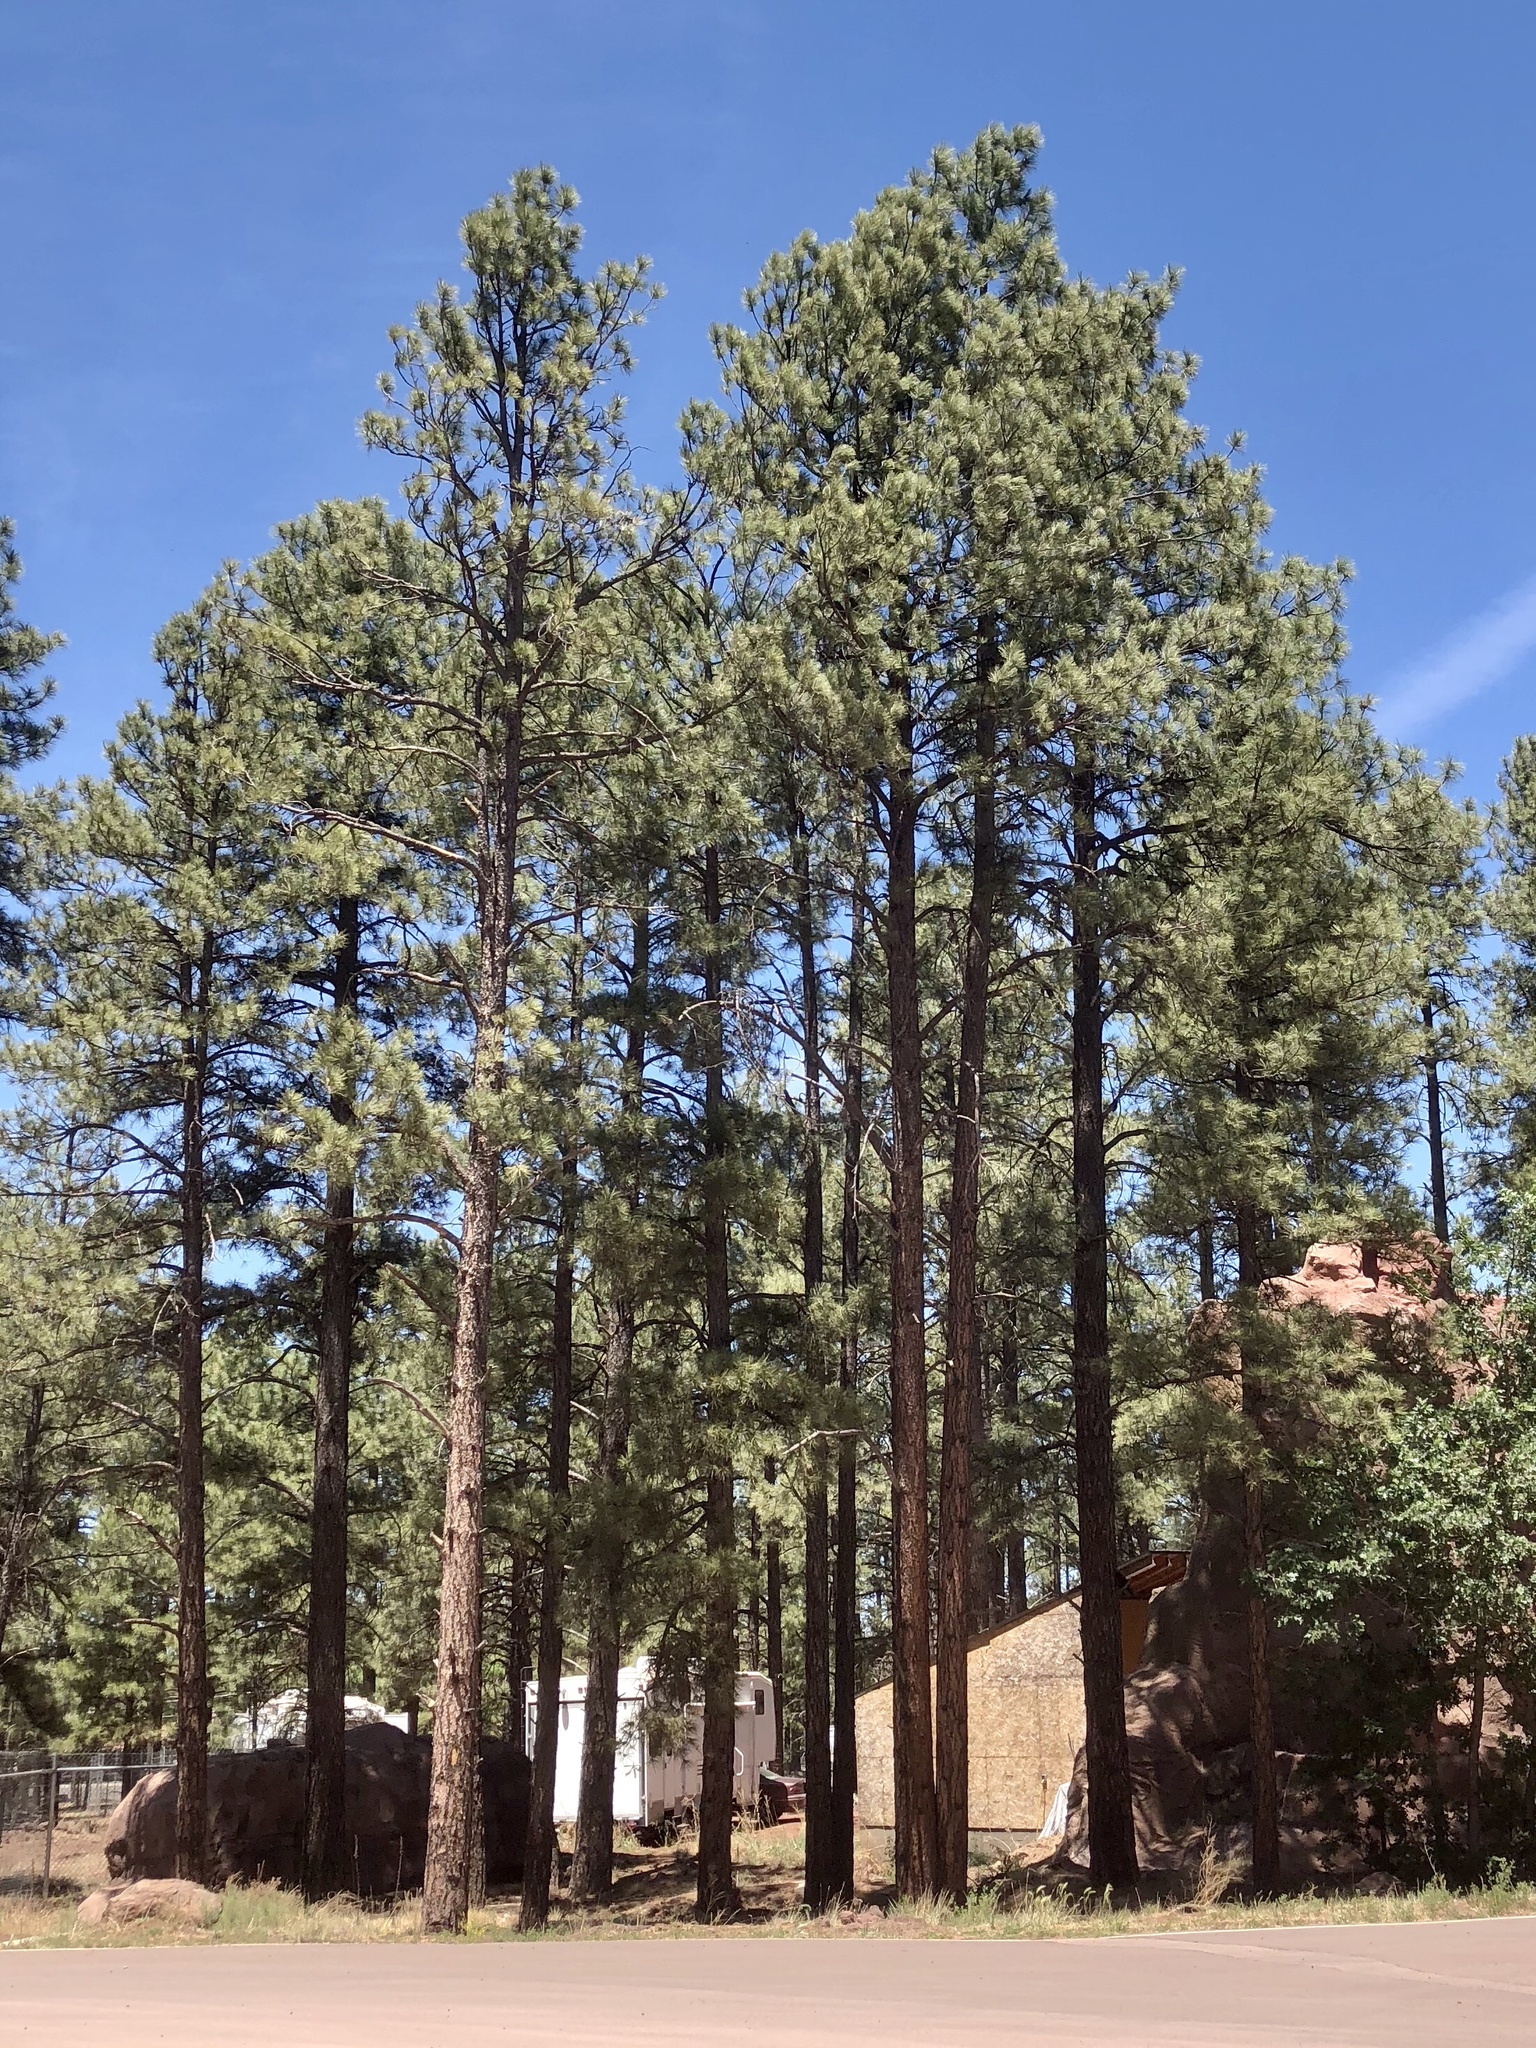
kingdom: Plantae
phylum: Tracheophyta
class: Pinopsida
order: Pinales
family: Pinaceae
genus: Pinus
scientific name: Pinus ponderosa
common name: Western yellow-pine
